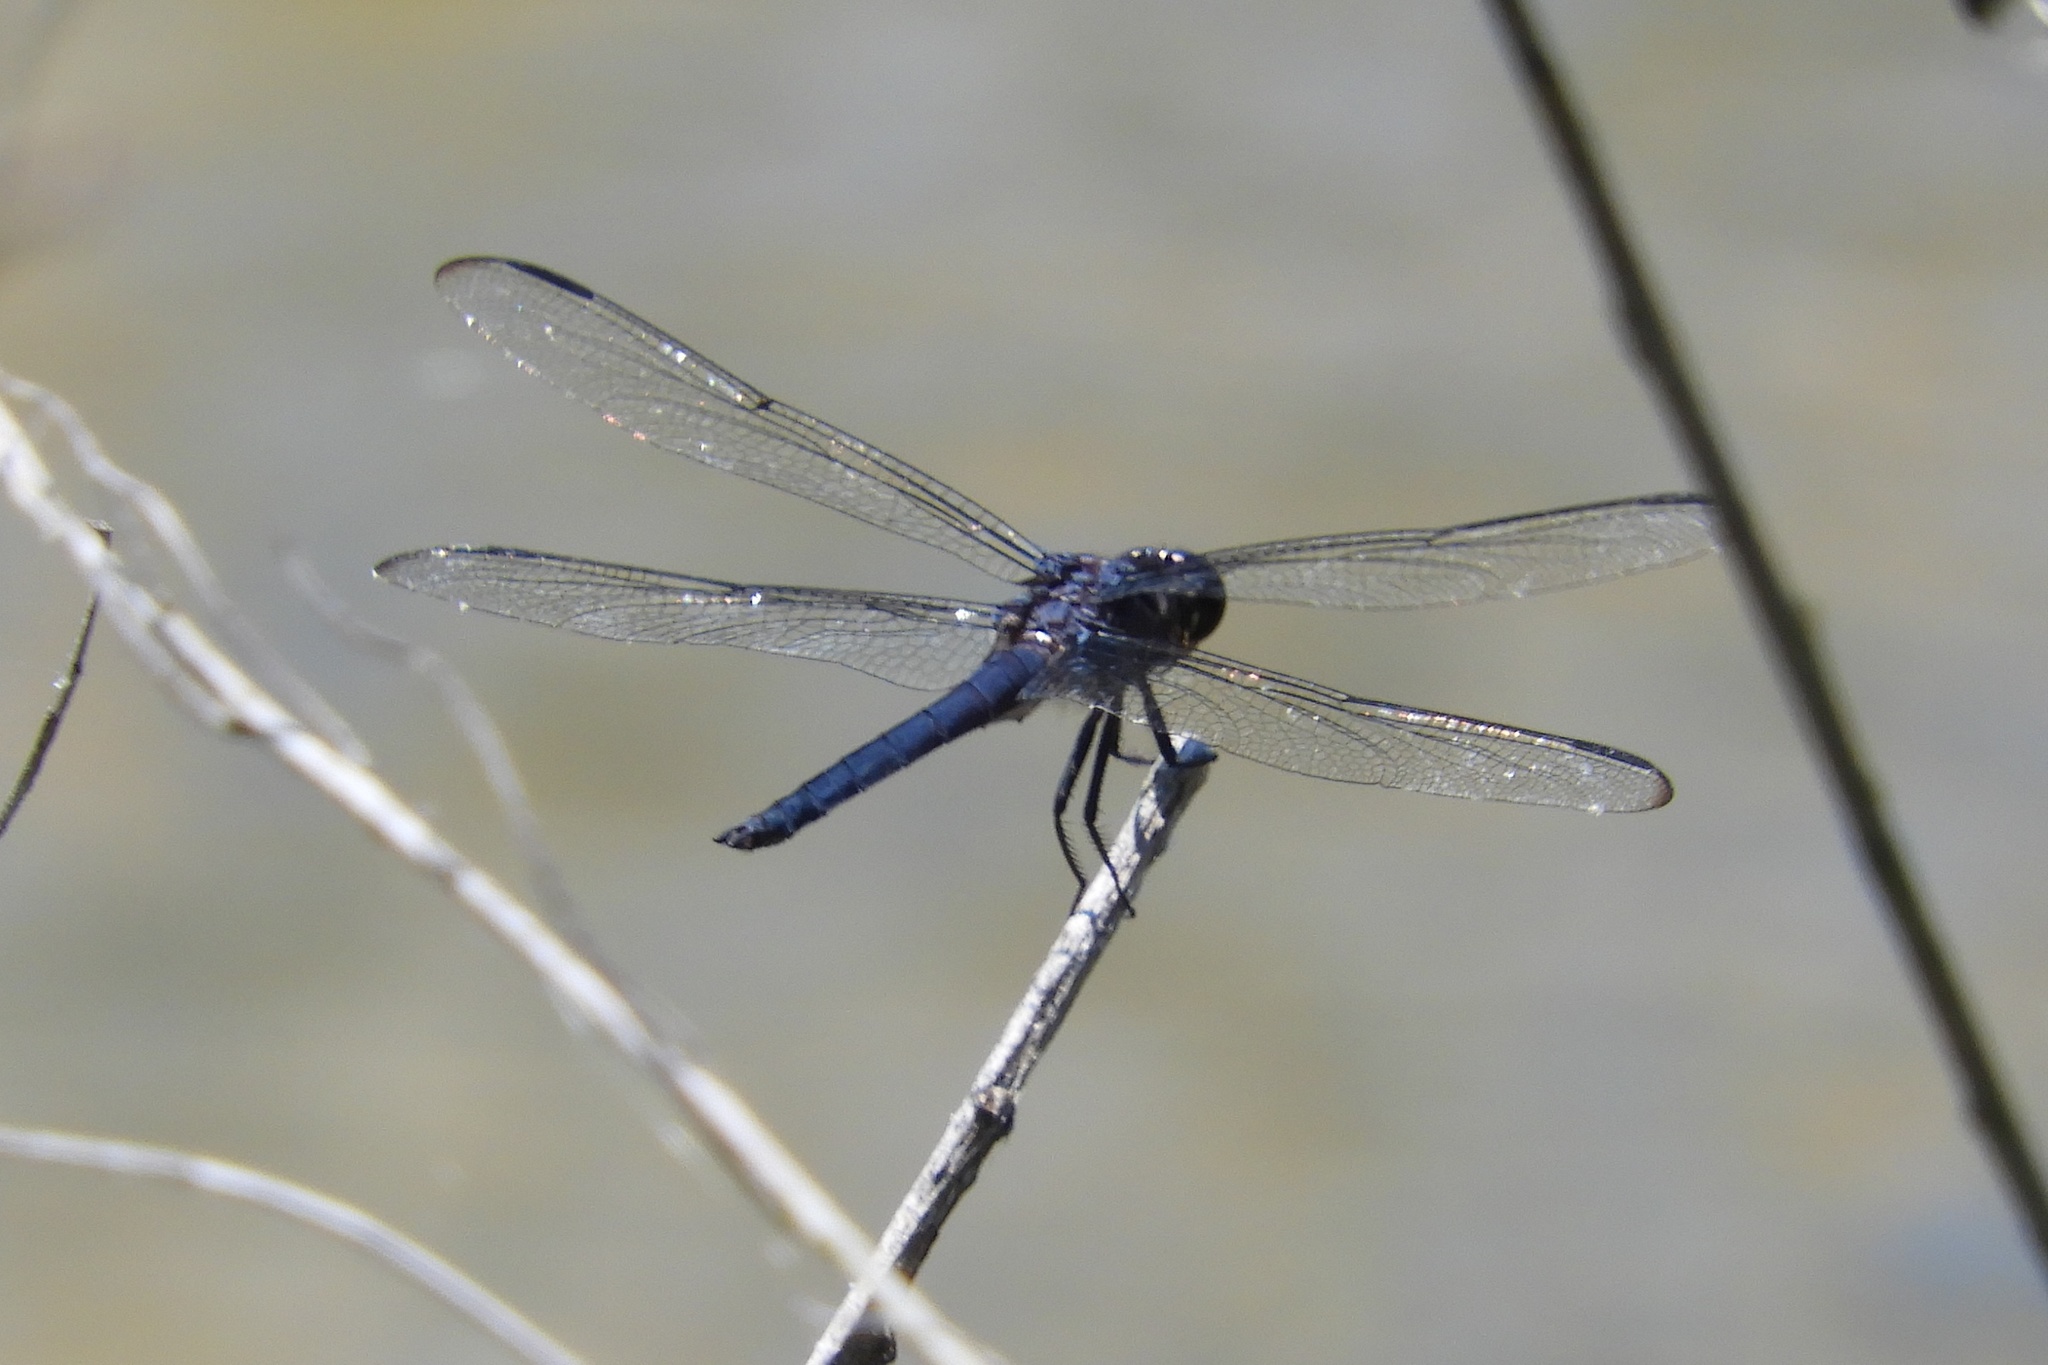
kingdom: Animalia
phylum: Arthropoda
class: Insecta
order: Odonata
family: Libellulidae
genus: Libellula
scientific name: Libellula incesta
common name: Slaty skimmer
